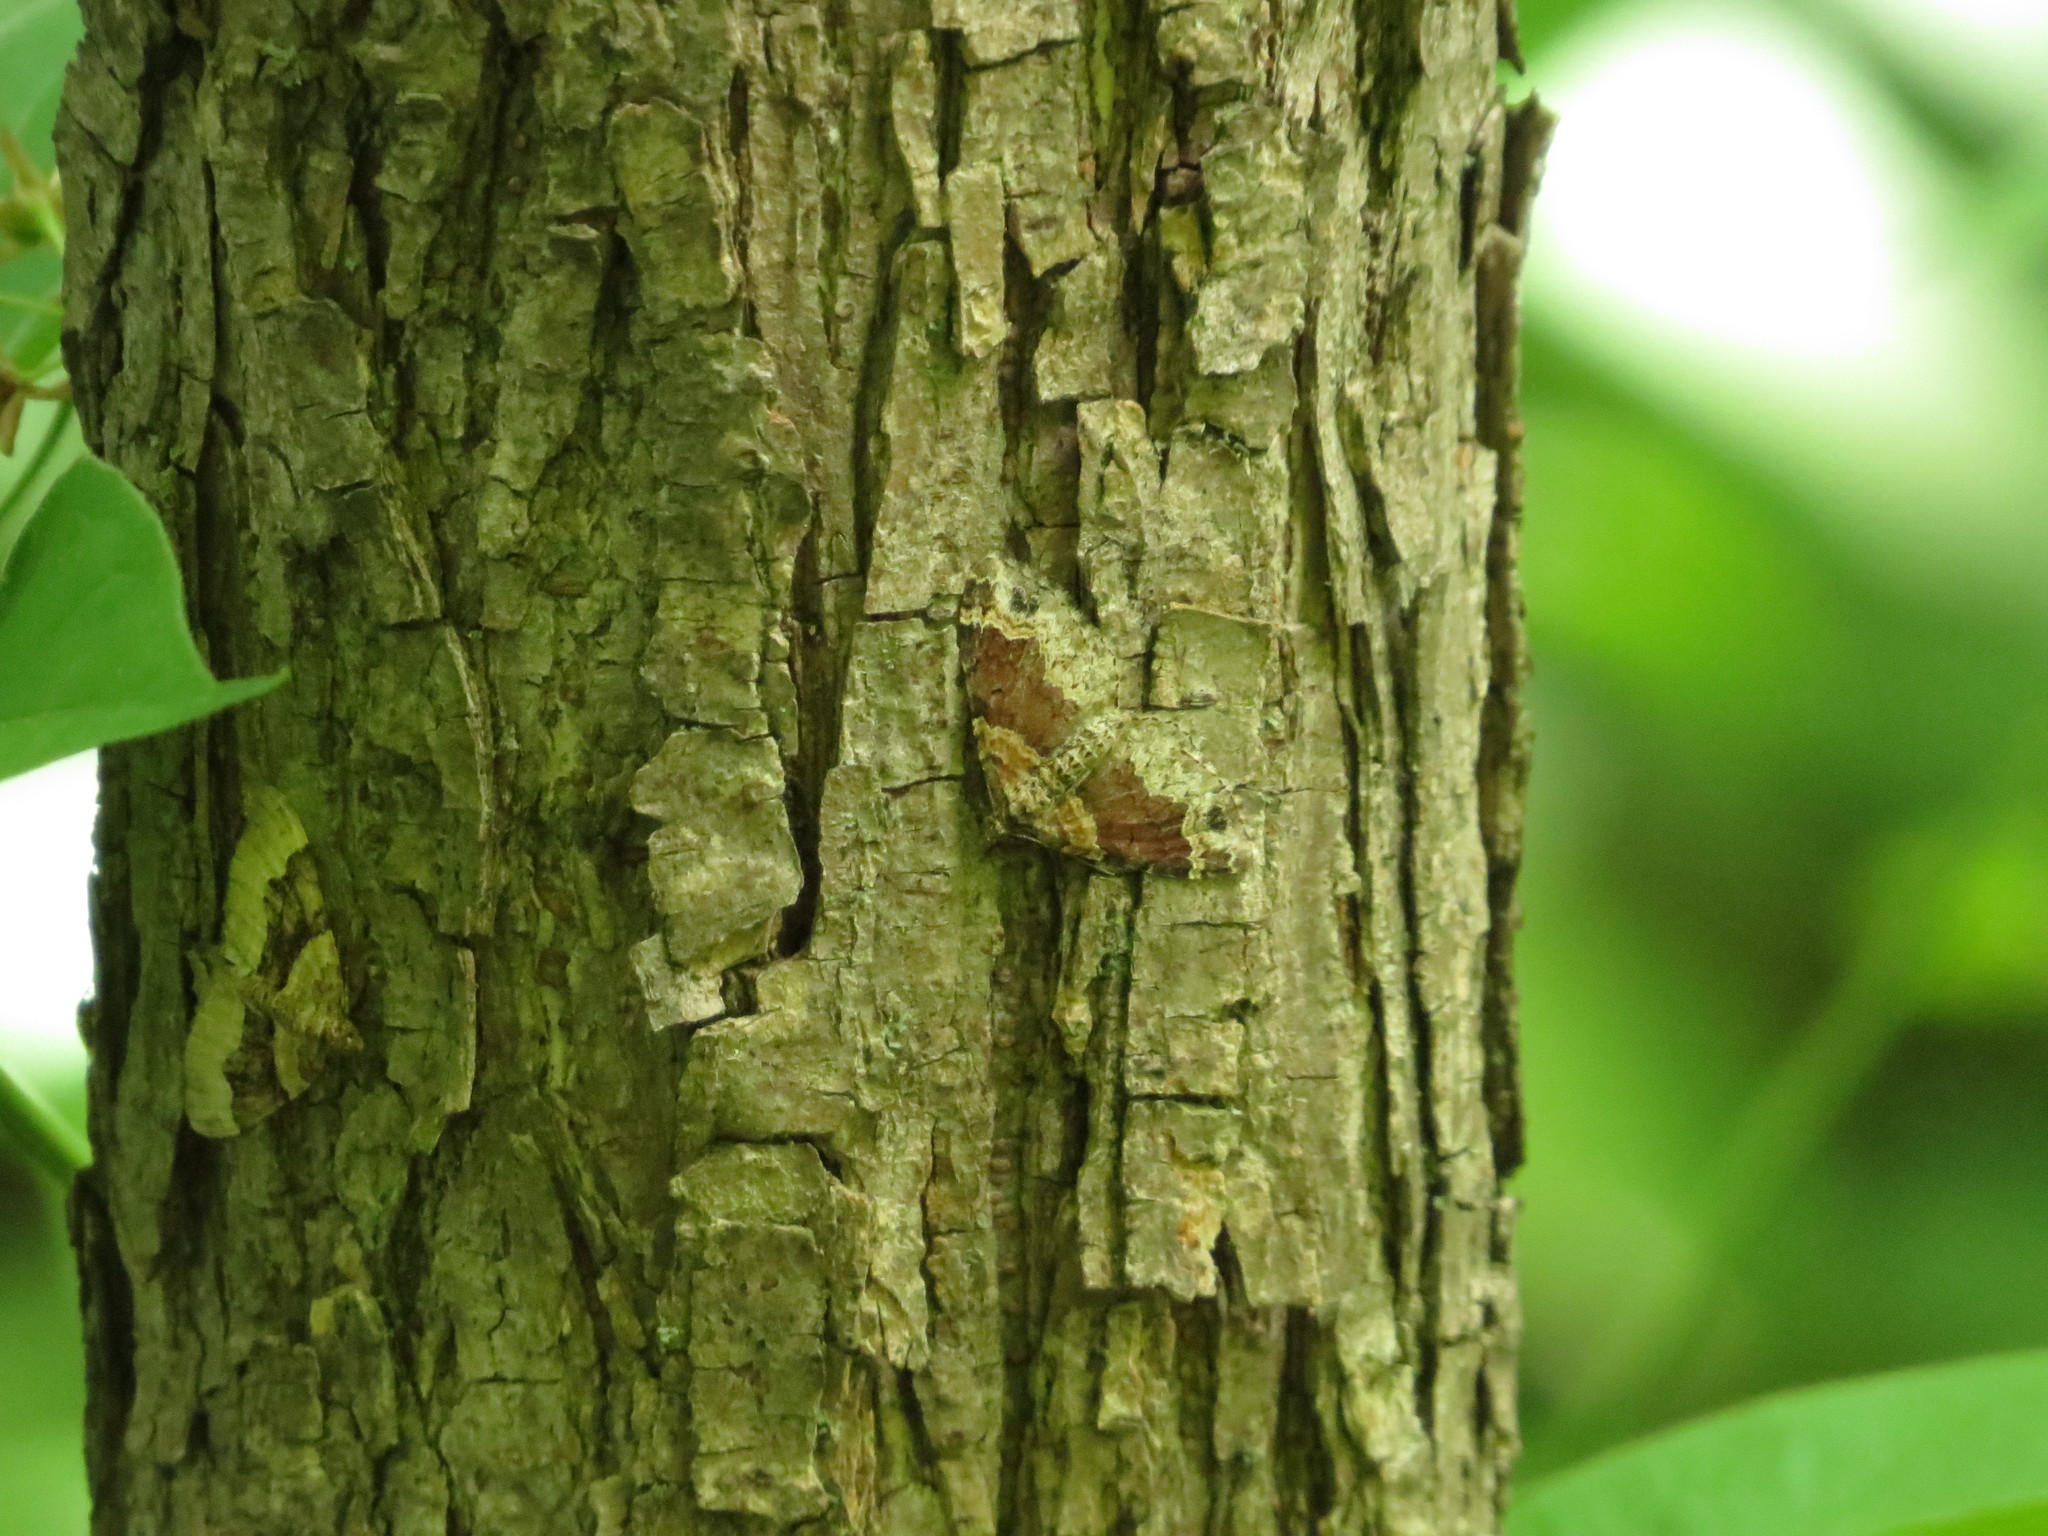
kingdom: Animalia
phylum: Arthropoda
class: Insecta
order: Lepidoptera
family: Geometridae
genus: Xanthorhoe
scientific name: Xanthorhoe ferrugata
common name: Dark-barred twin-spot carpet
